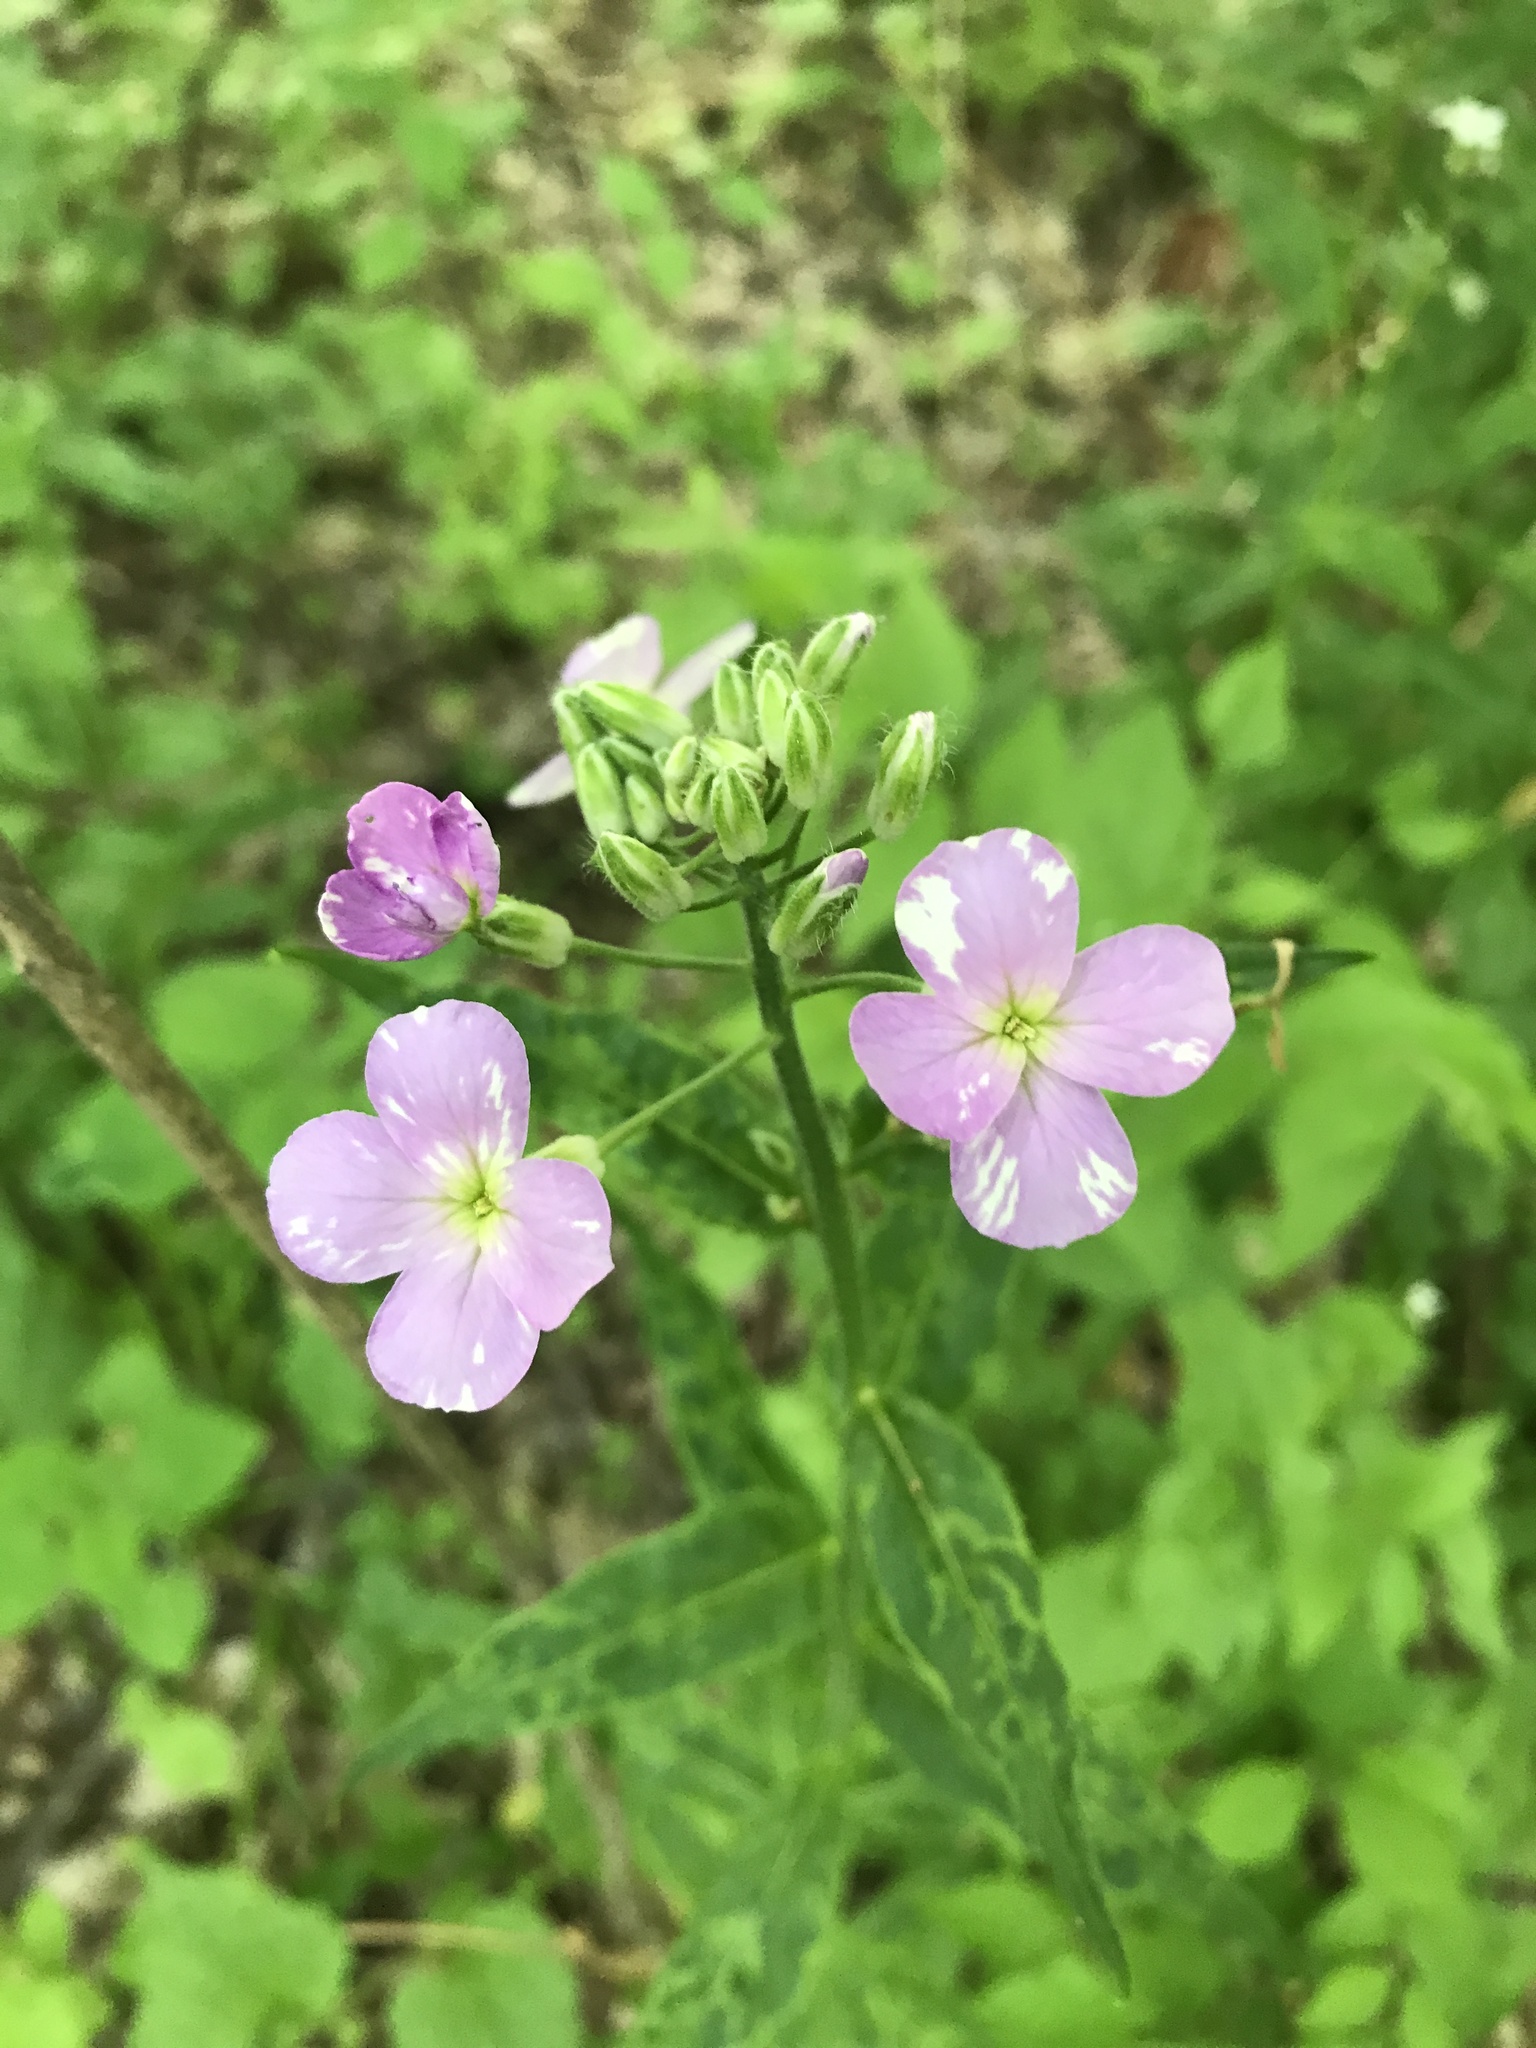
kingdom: Plantae
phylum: Tracheophyta
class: Magnoliopsida
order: Brassicales
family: Brassicaceae
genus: Hesperis
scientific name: Hesperis matronalis
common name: Dame's-violet
